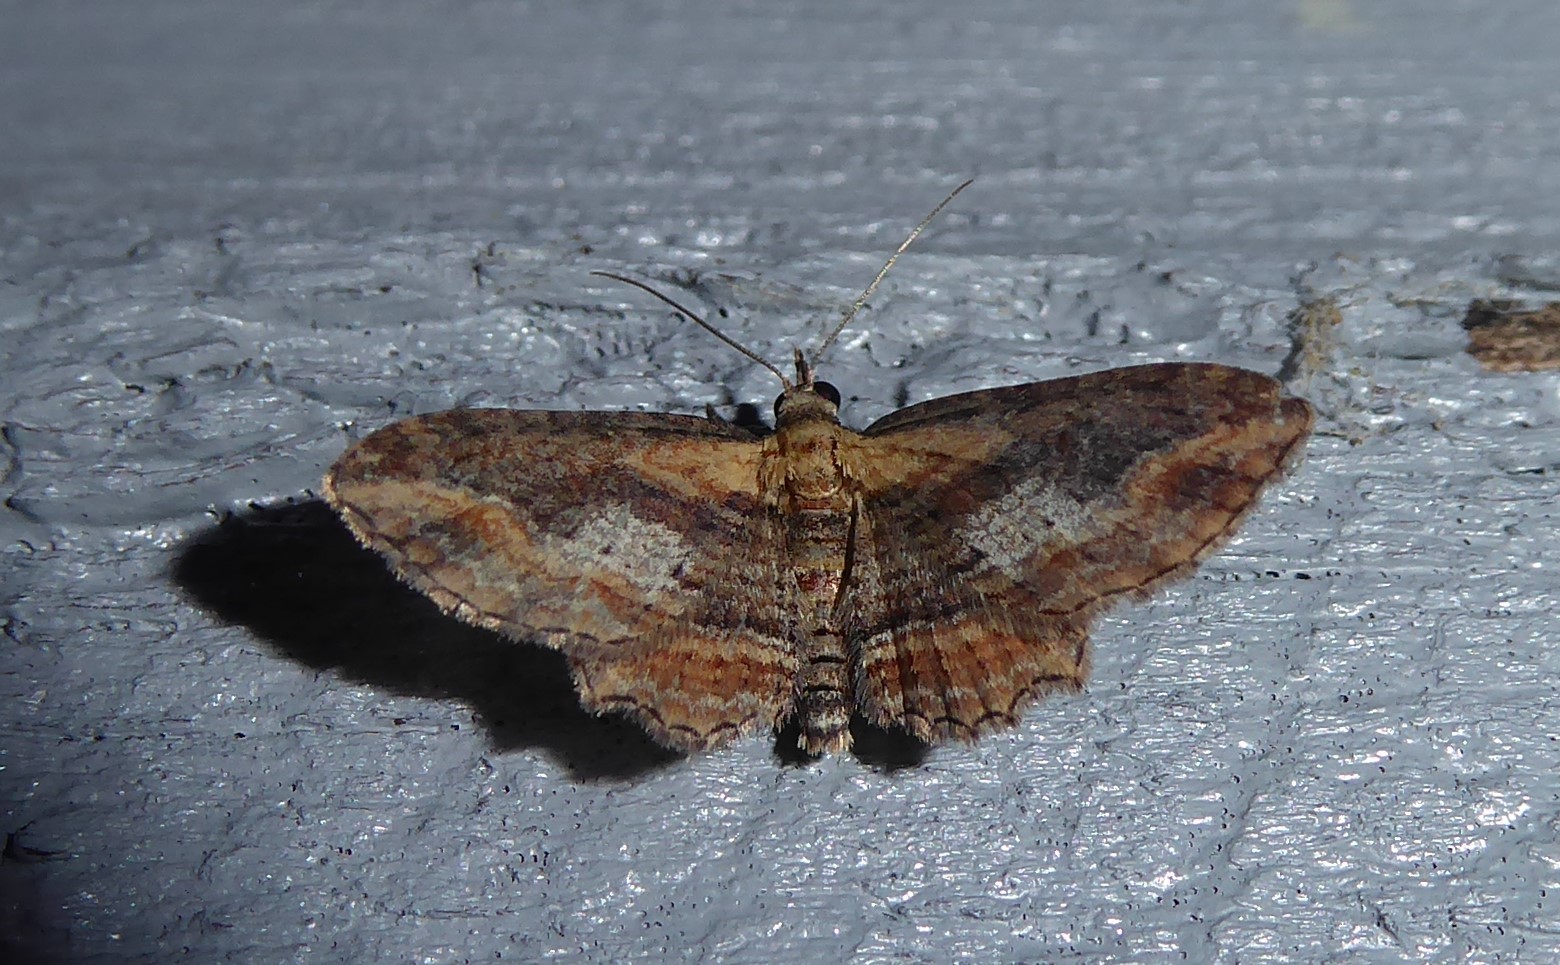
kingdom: Animalia
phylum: Arthropoda
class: Insecta
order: Lepidoptera
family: Geometridae
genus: Chloroclystis
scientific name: Chloroclystis filata
